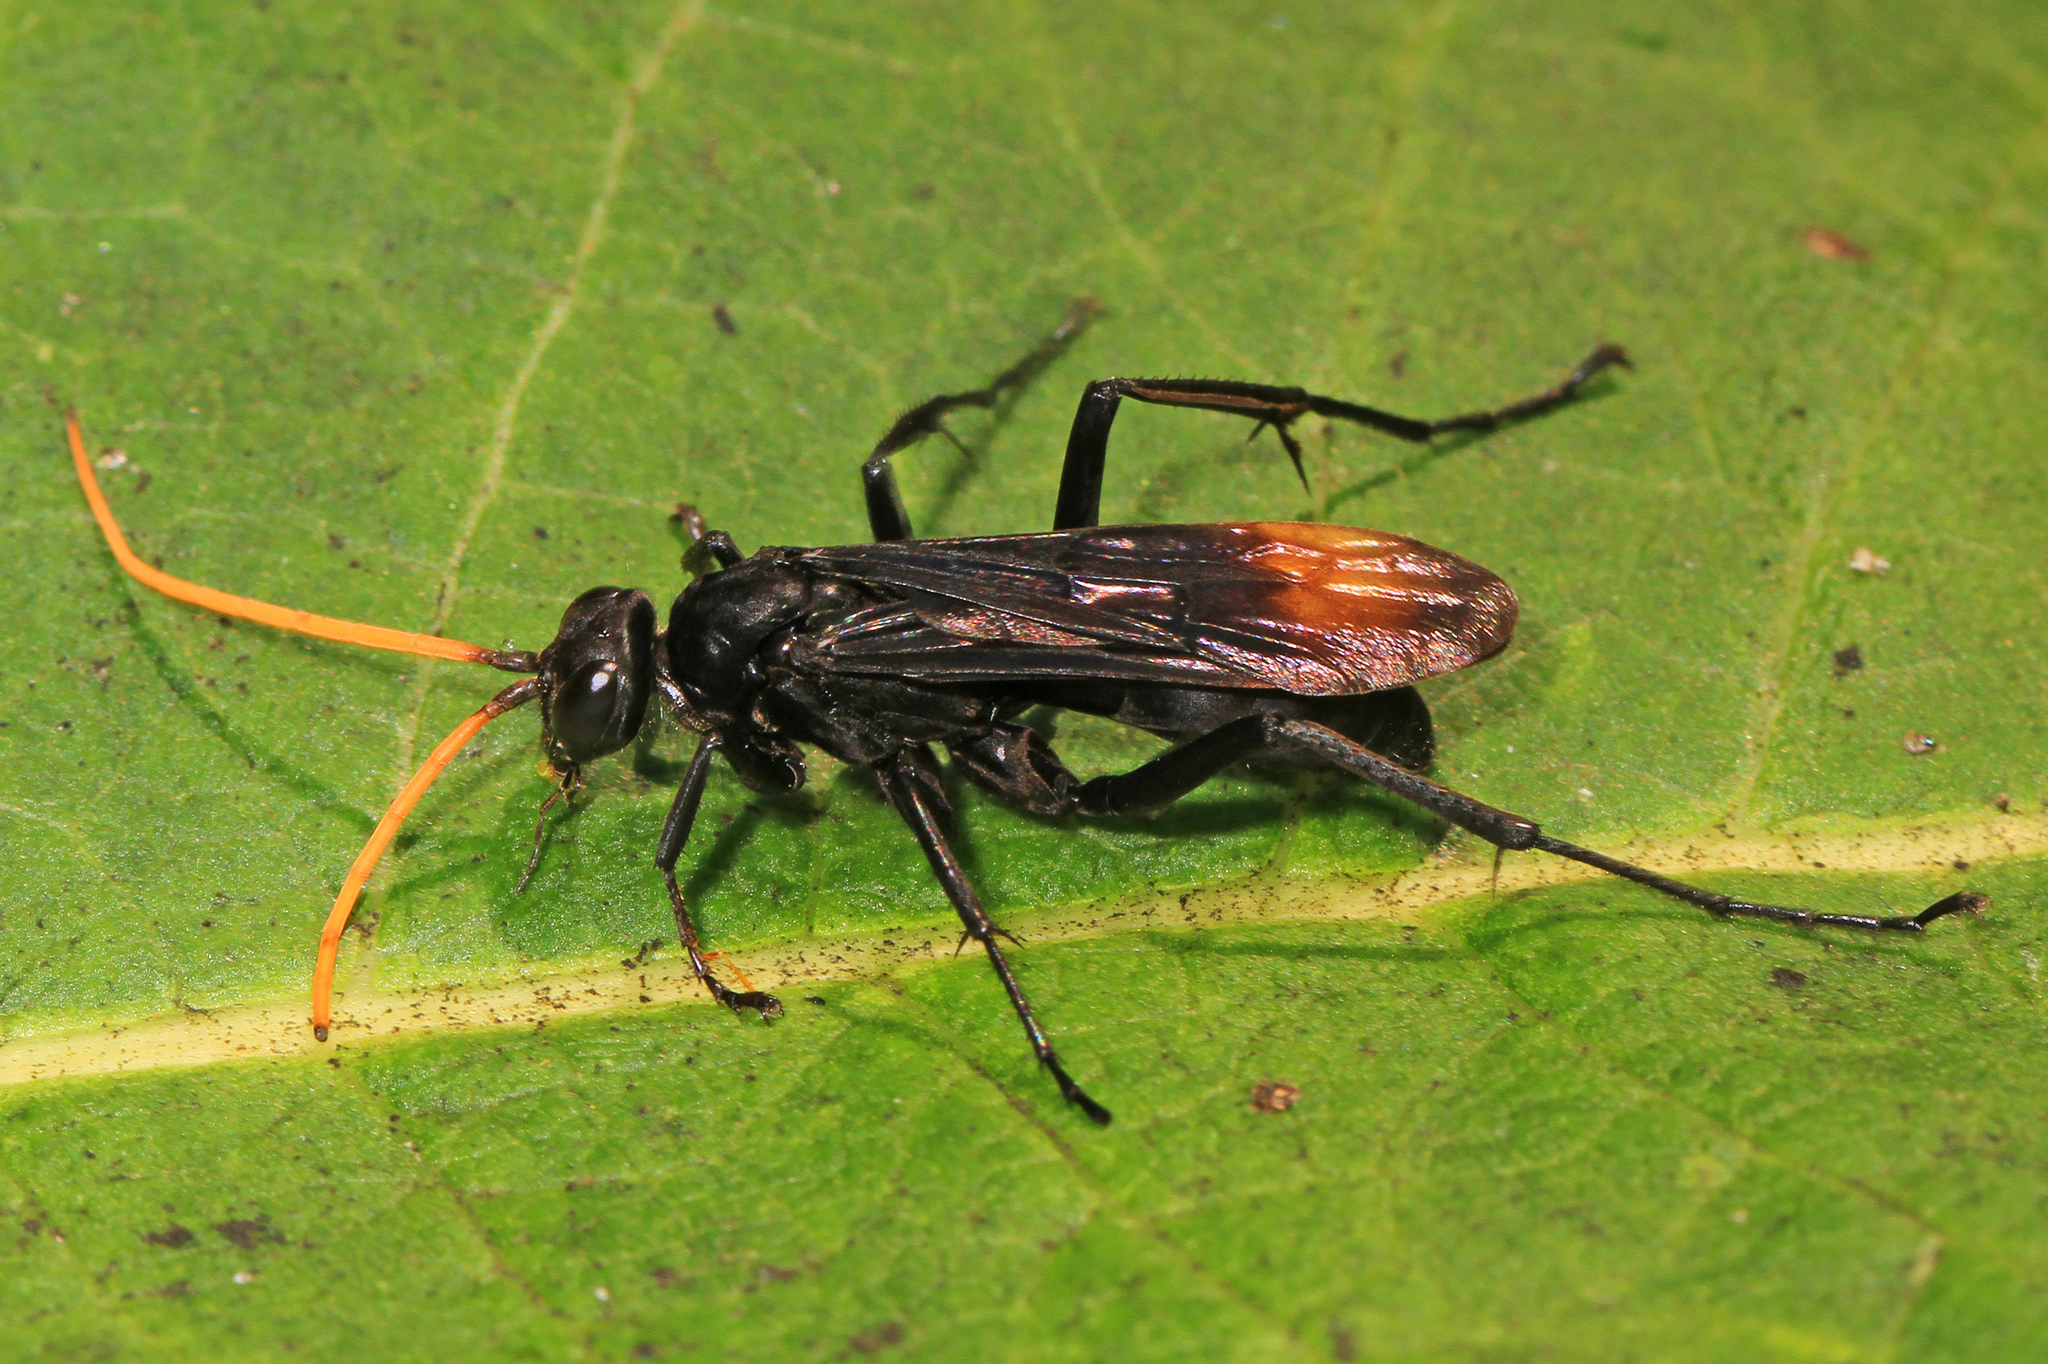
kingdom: Animalia
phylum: Arthropoda
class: Insecta
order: Hymenoptera
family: Pompilidae
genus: Entypus
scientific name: Entypus unifasciatus
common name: Eastern tawny-horned spider wasp
